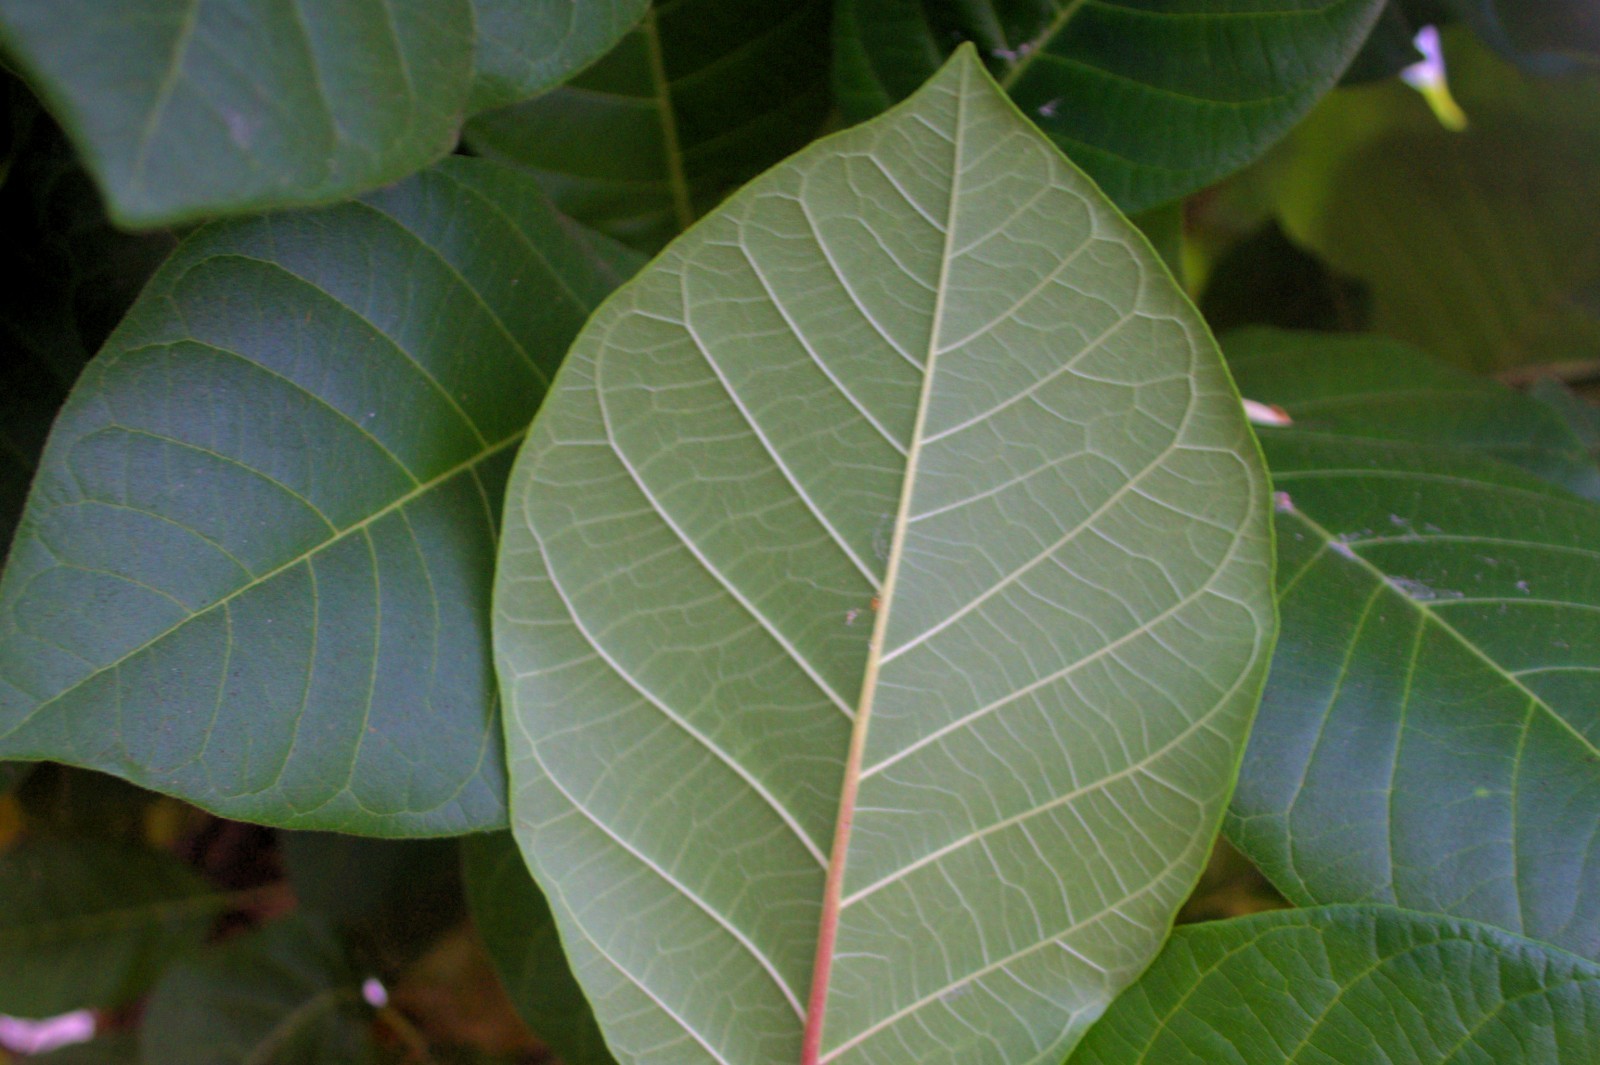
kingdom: Plantae
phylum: Tracheophyta
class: Magnoliopsida
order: Gentianales
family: Rubiaceae
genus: Guettarda
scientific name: Guettarda speciosa
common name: Sea randa
